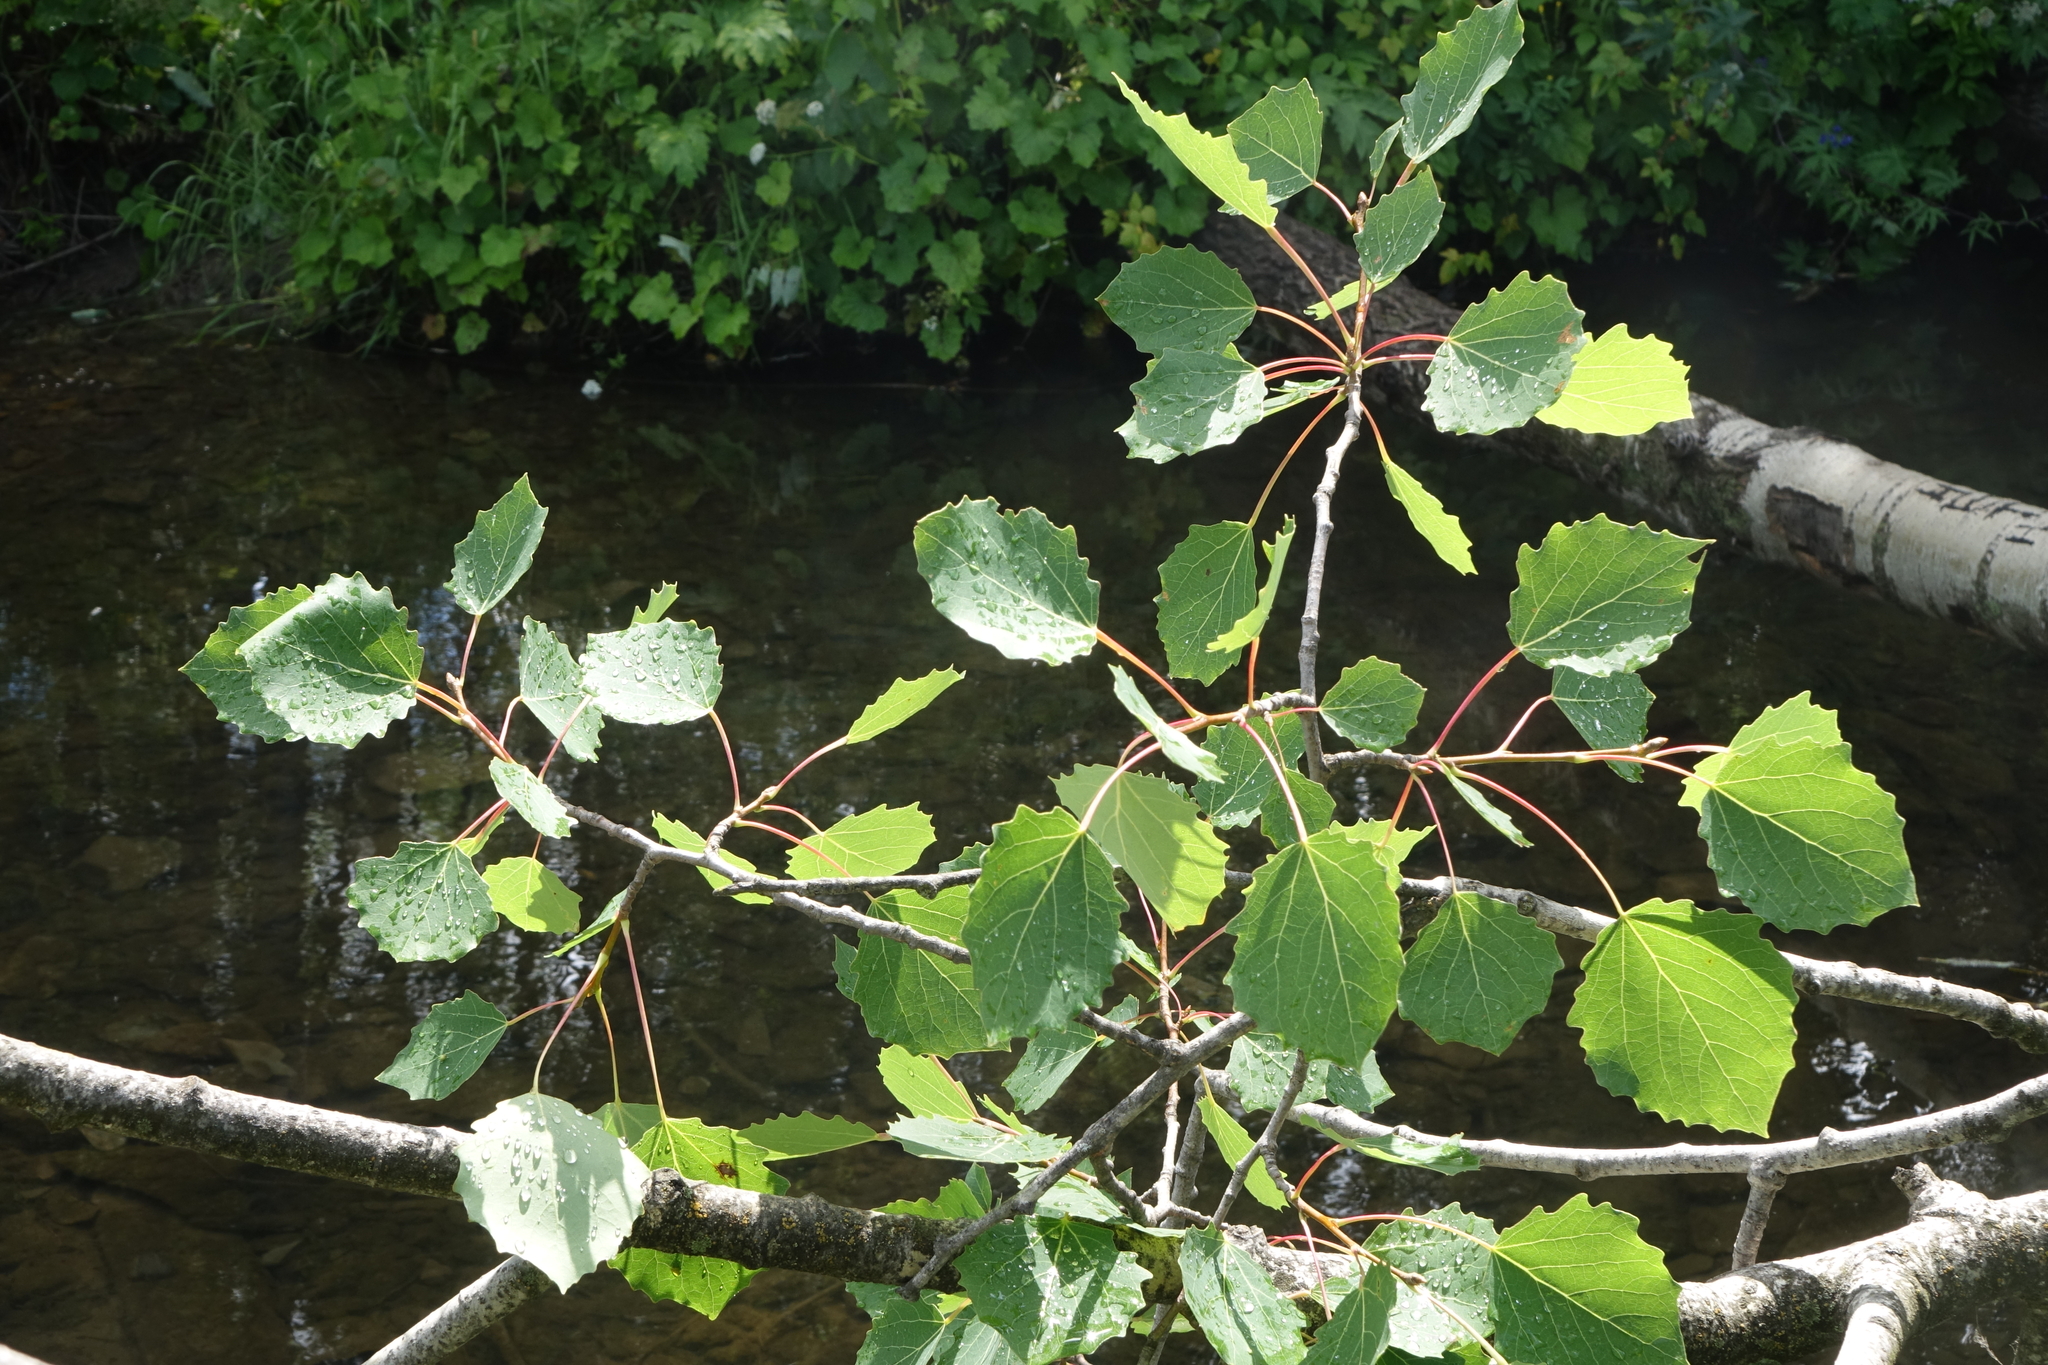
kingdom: Plantae
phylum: Tracheophyta
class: Magnoliopsida
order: Malpighiales
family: Salicaceae
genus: Populus
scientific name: Populus tremula
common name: European aspen
